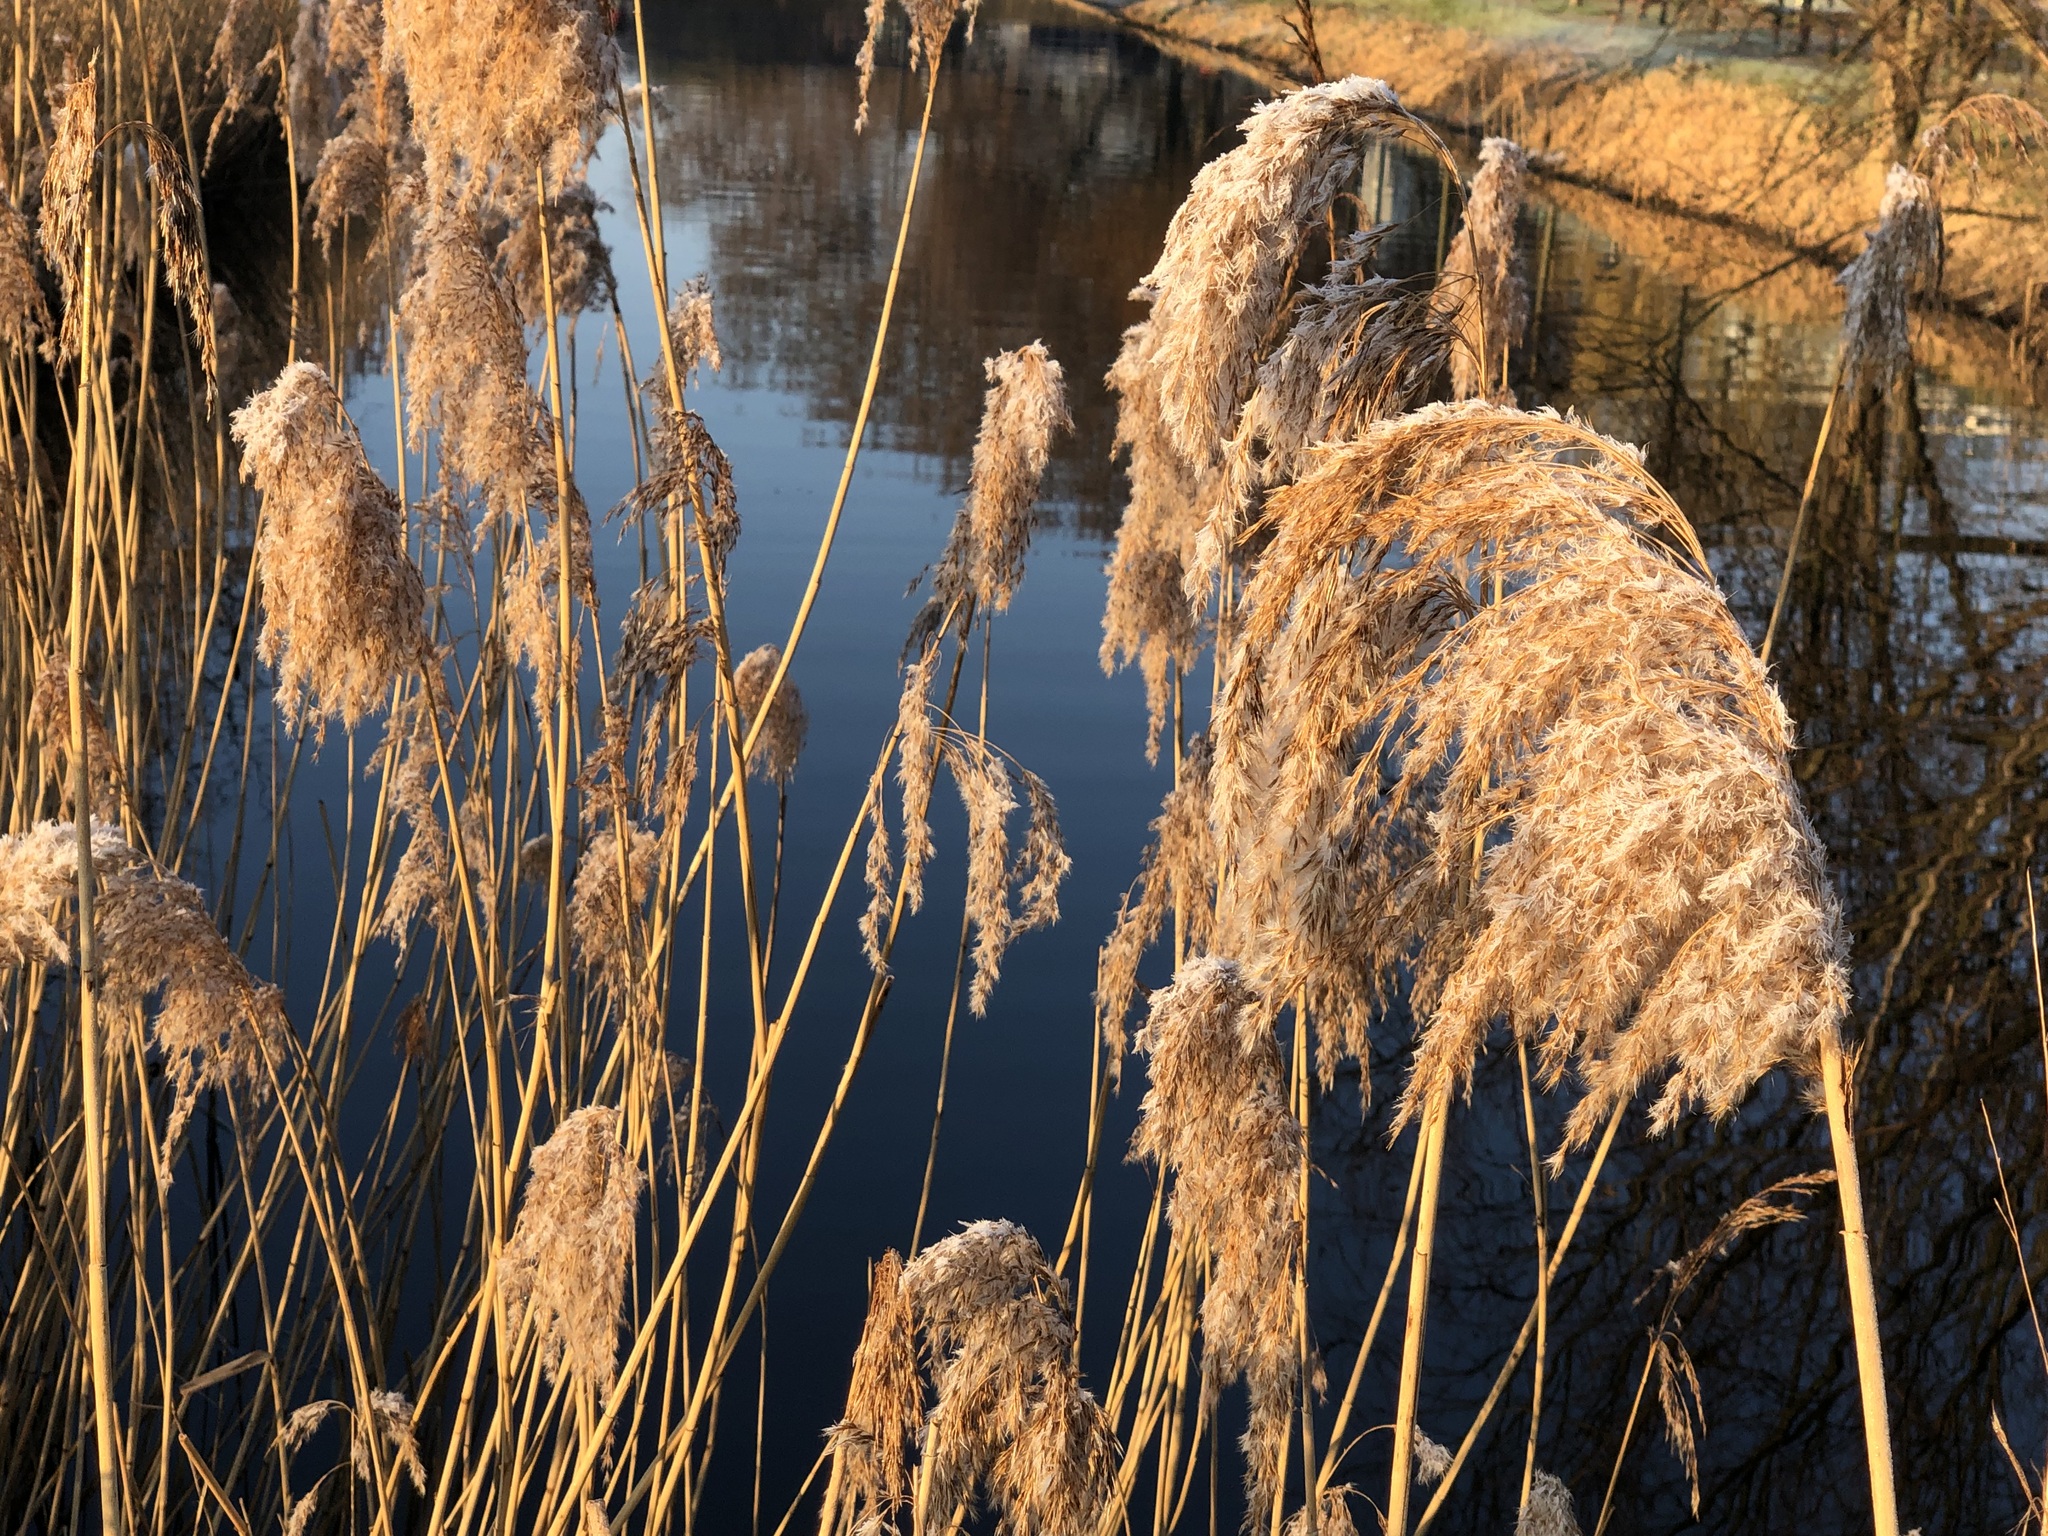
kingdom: Plantae
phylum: Tracheophyta
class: Liliopsida
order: Poales
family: Poaceae
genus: Phragmites
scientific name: Phragmites australis
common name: Common reed
